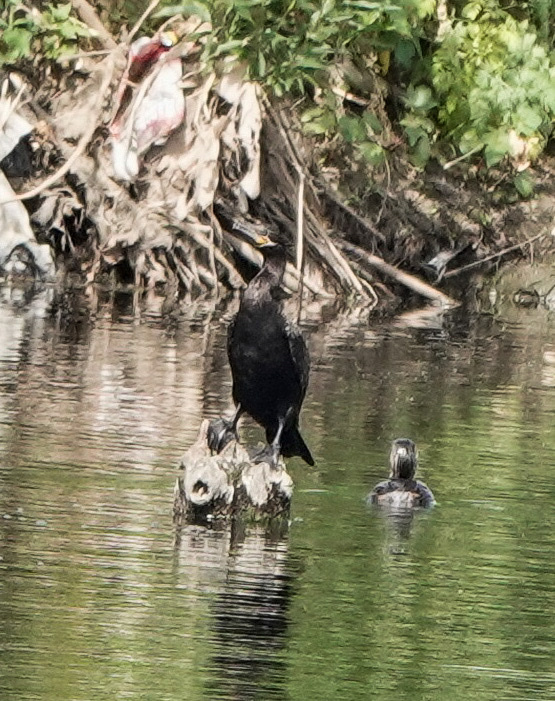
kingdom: Animalia
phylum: Chordata
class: Aves
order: Suliformes
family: Phalacrocoracidae
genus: Phalacrocorax
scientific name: Phalacrocorax brasilianus
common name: Neotropic cormorant
